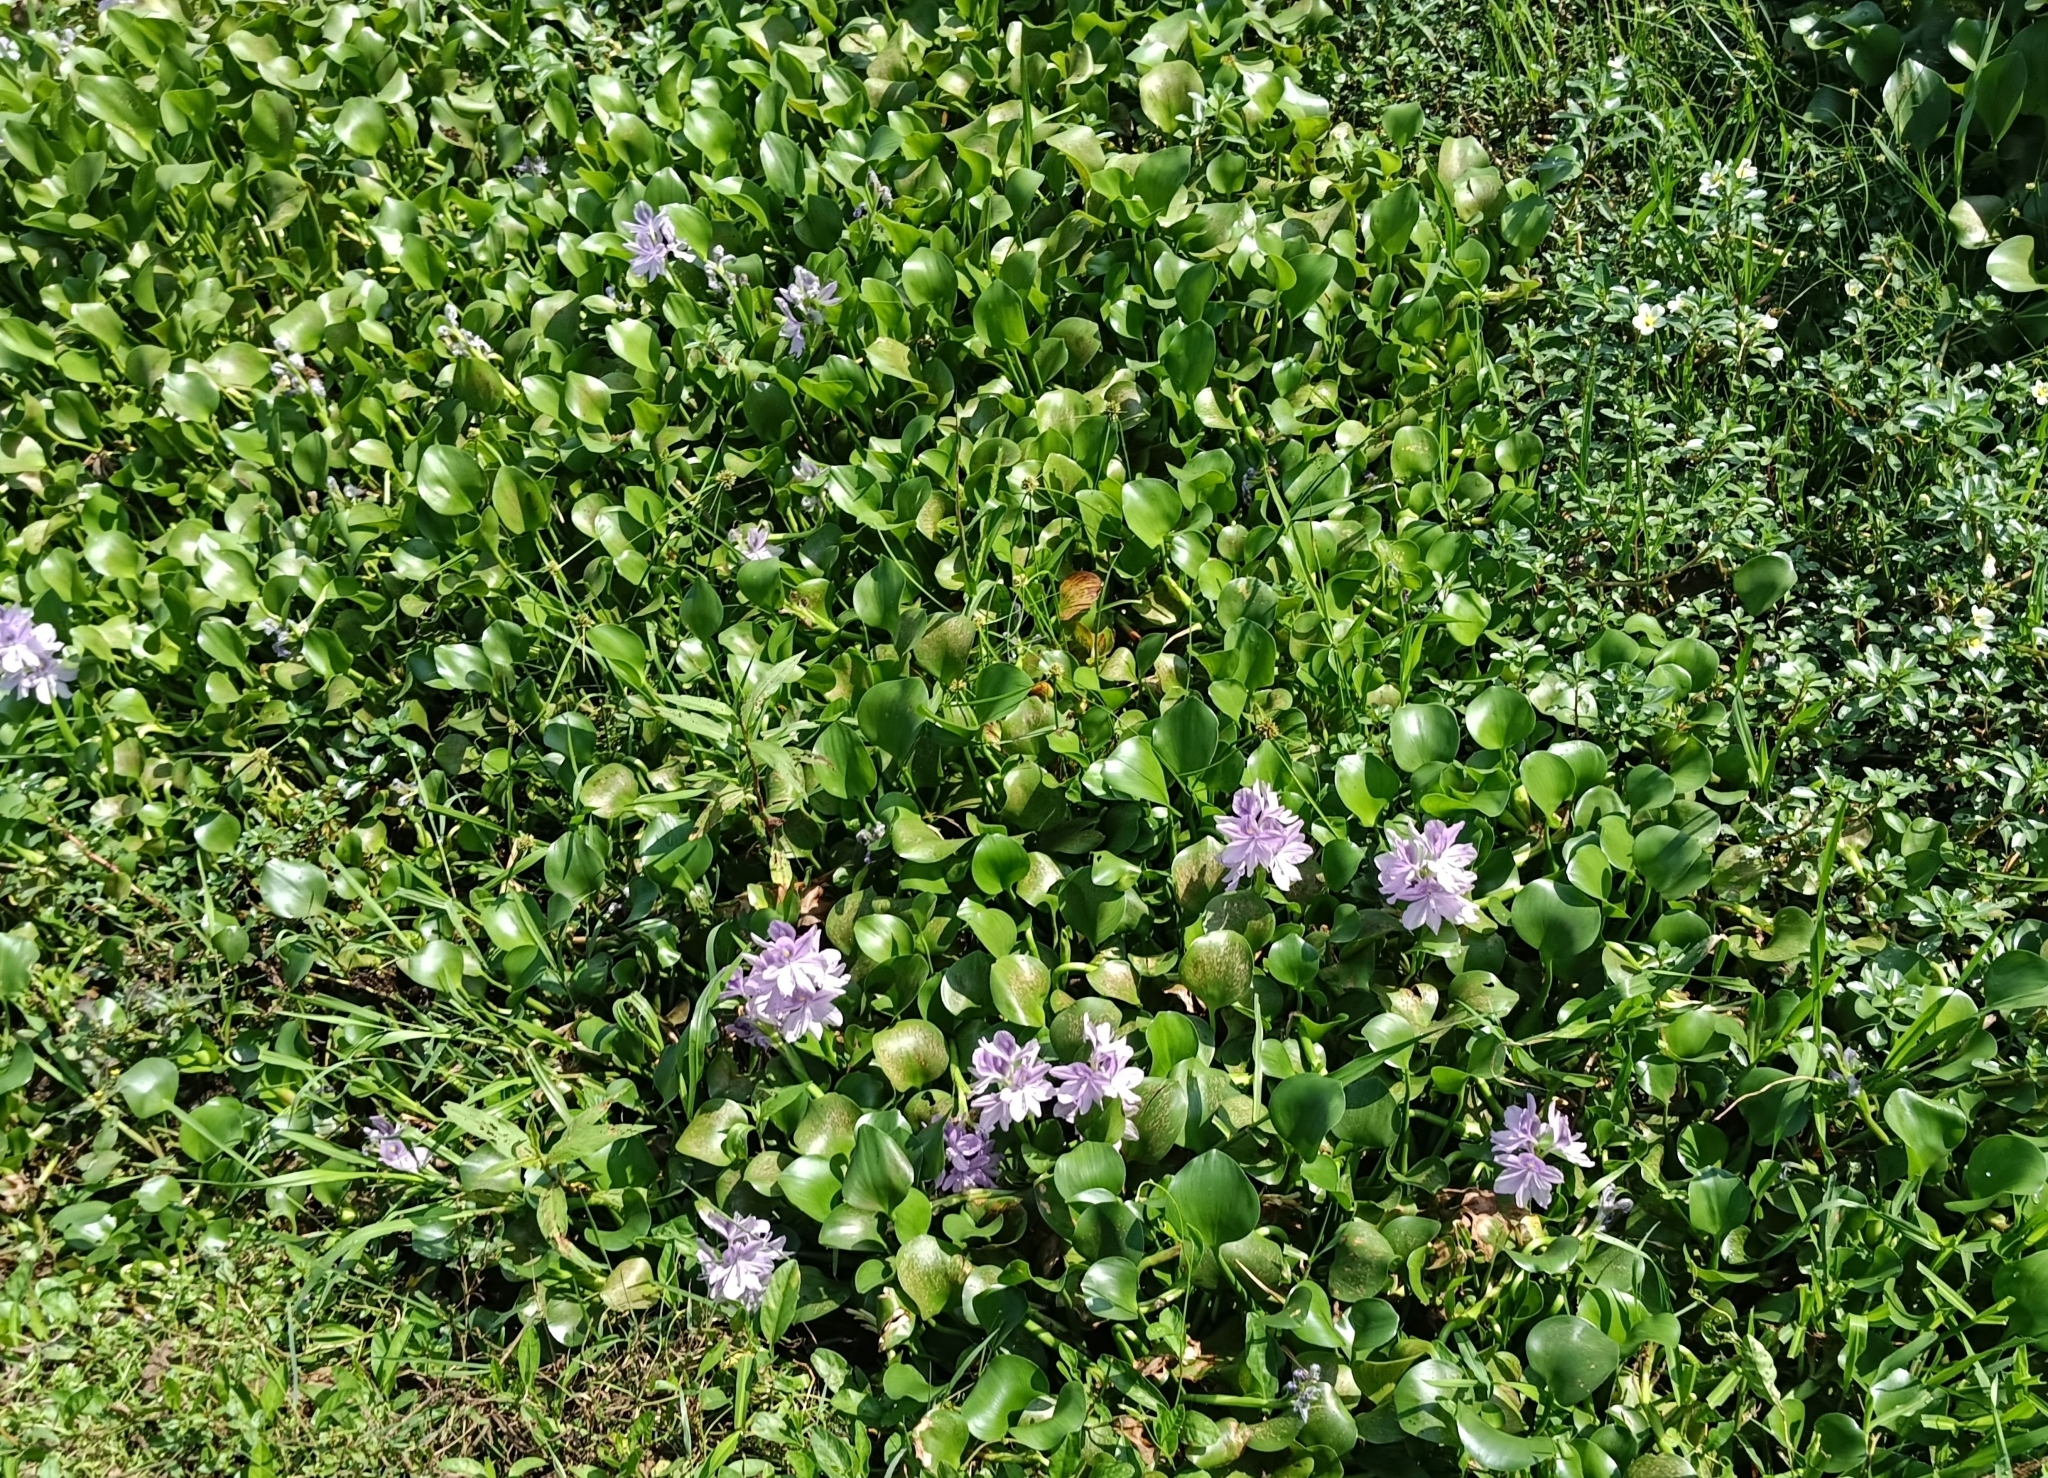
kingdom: Plantae
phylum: Tracheophyta
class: Liliopsida
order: Commelinales
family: Pontederiaceae
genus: Pontederia
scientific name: Pontederia crassipes
